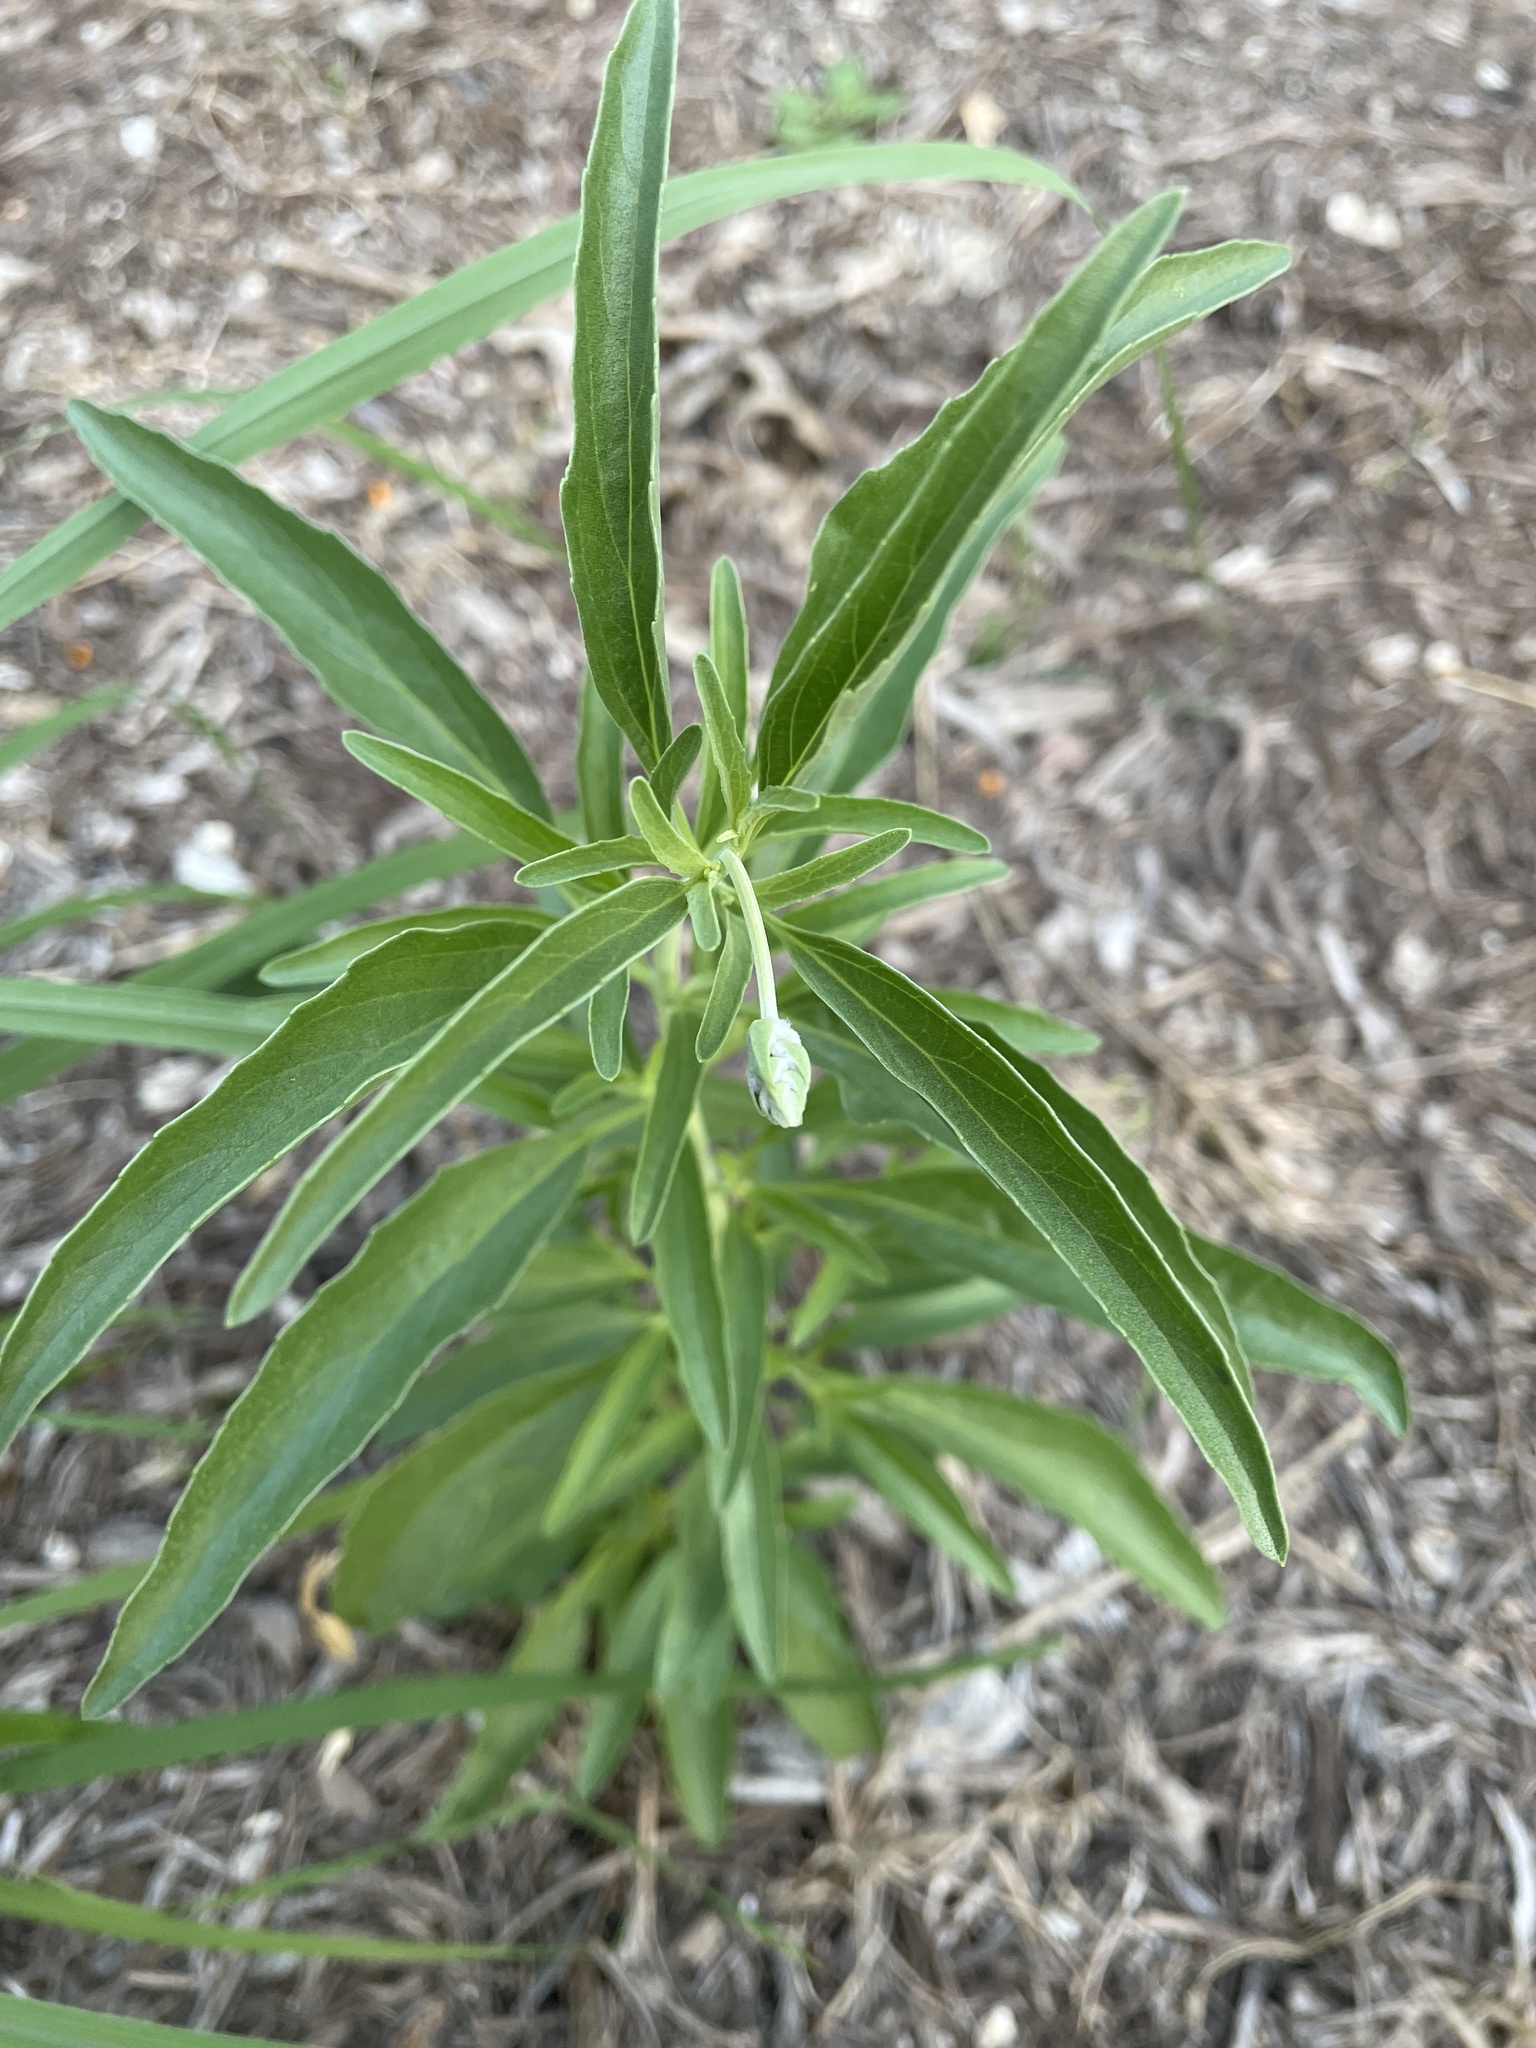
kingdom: Plantae
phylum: Tracheophyta
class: Magnoliopsida
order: Lamiales
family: Lamiaceae
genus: Salvia
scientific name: Salvia farinacea
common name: Mealy sage
